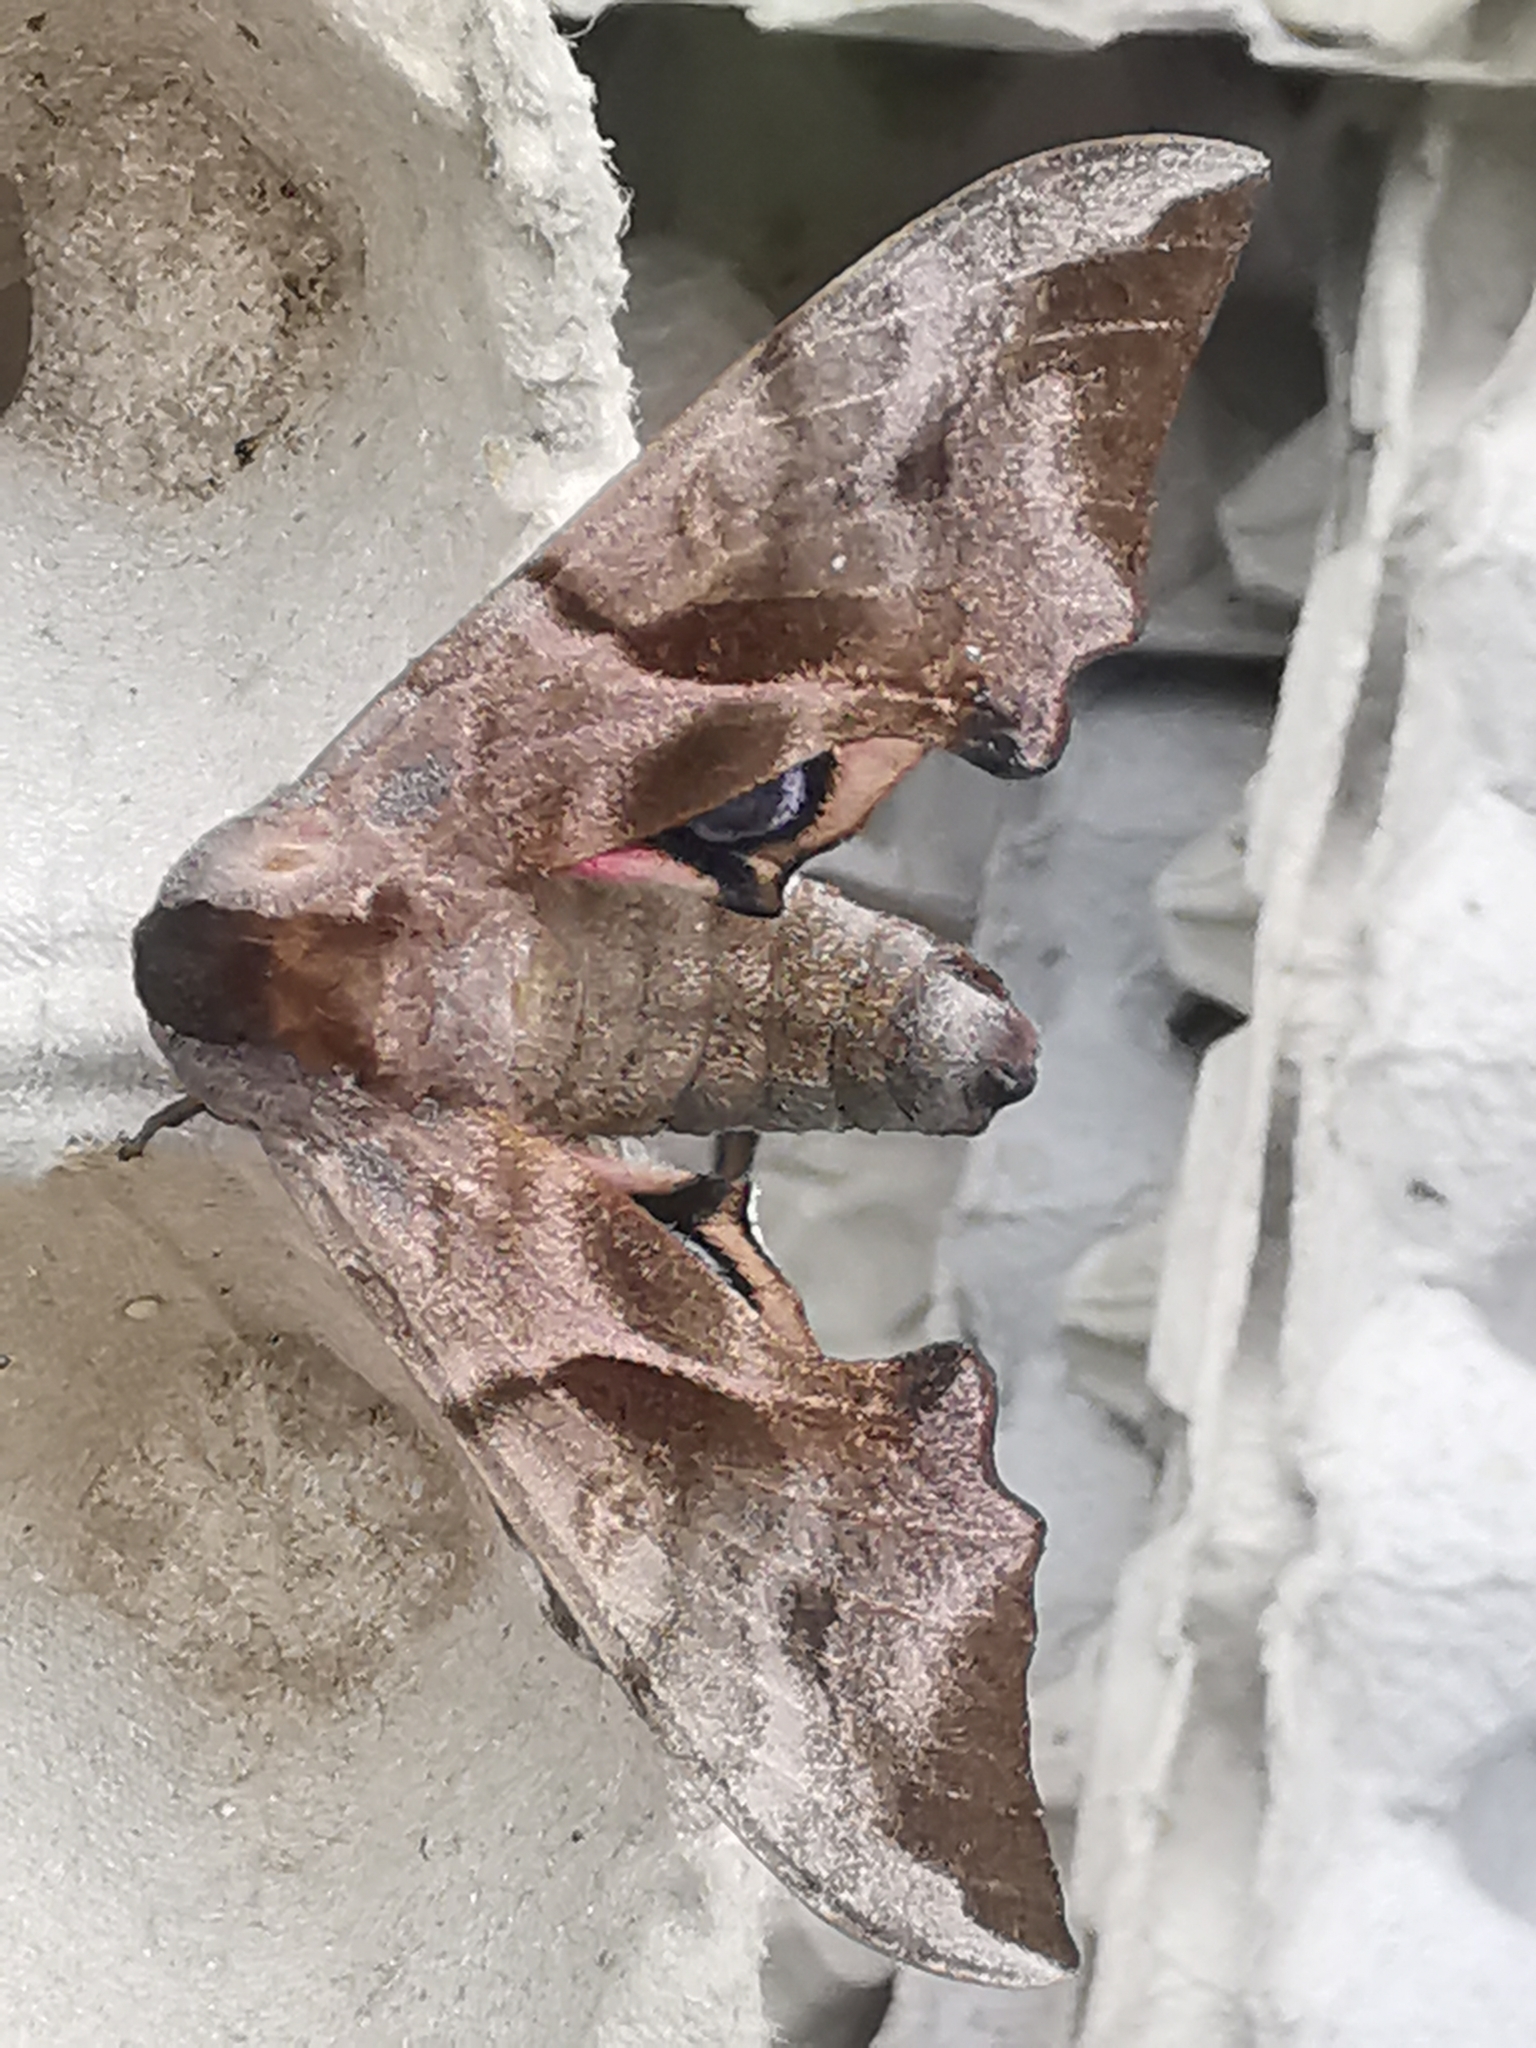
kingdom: Animalia
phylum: Arthropoda
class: Insecta
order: Lepidoptera
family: Sphingidae
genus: Smerinthus
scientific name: Smerinthus ocellata
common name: Eyed hawk-moth
